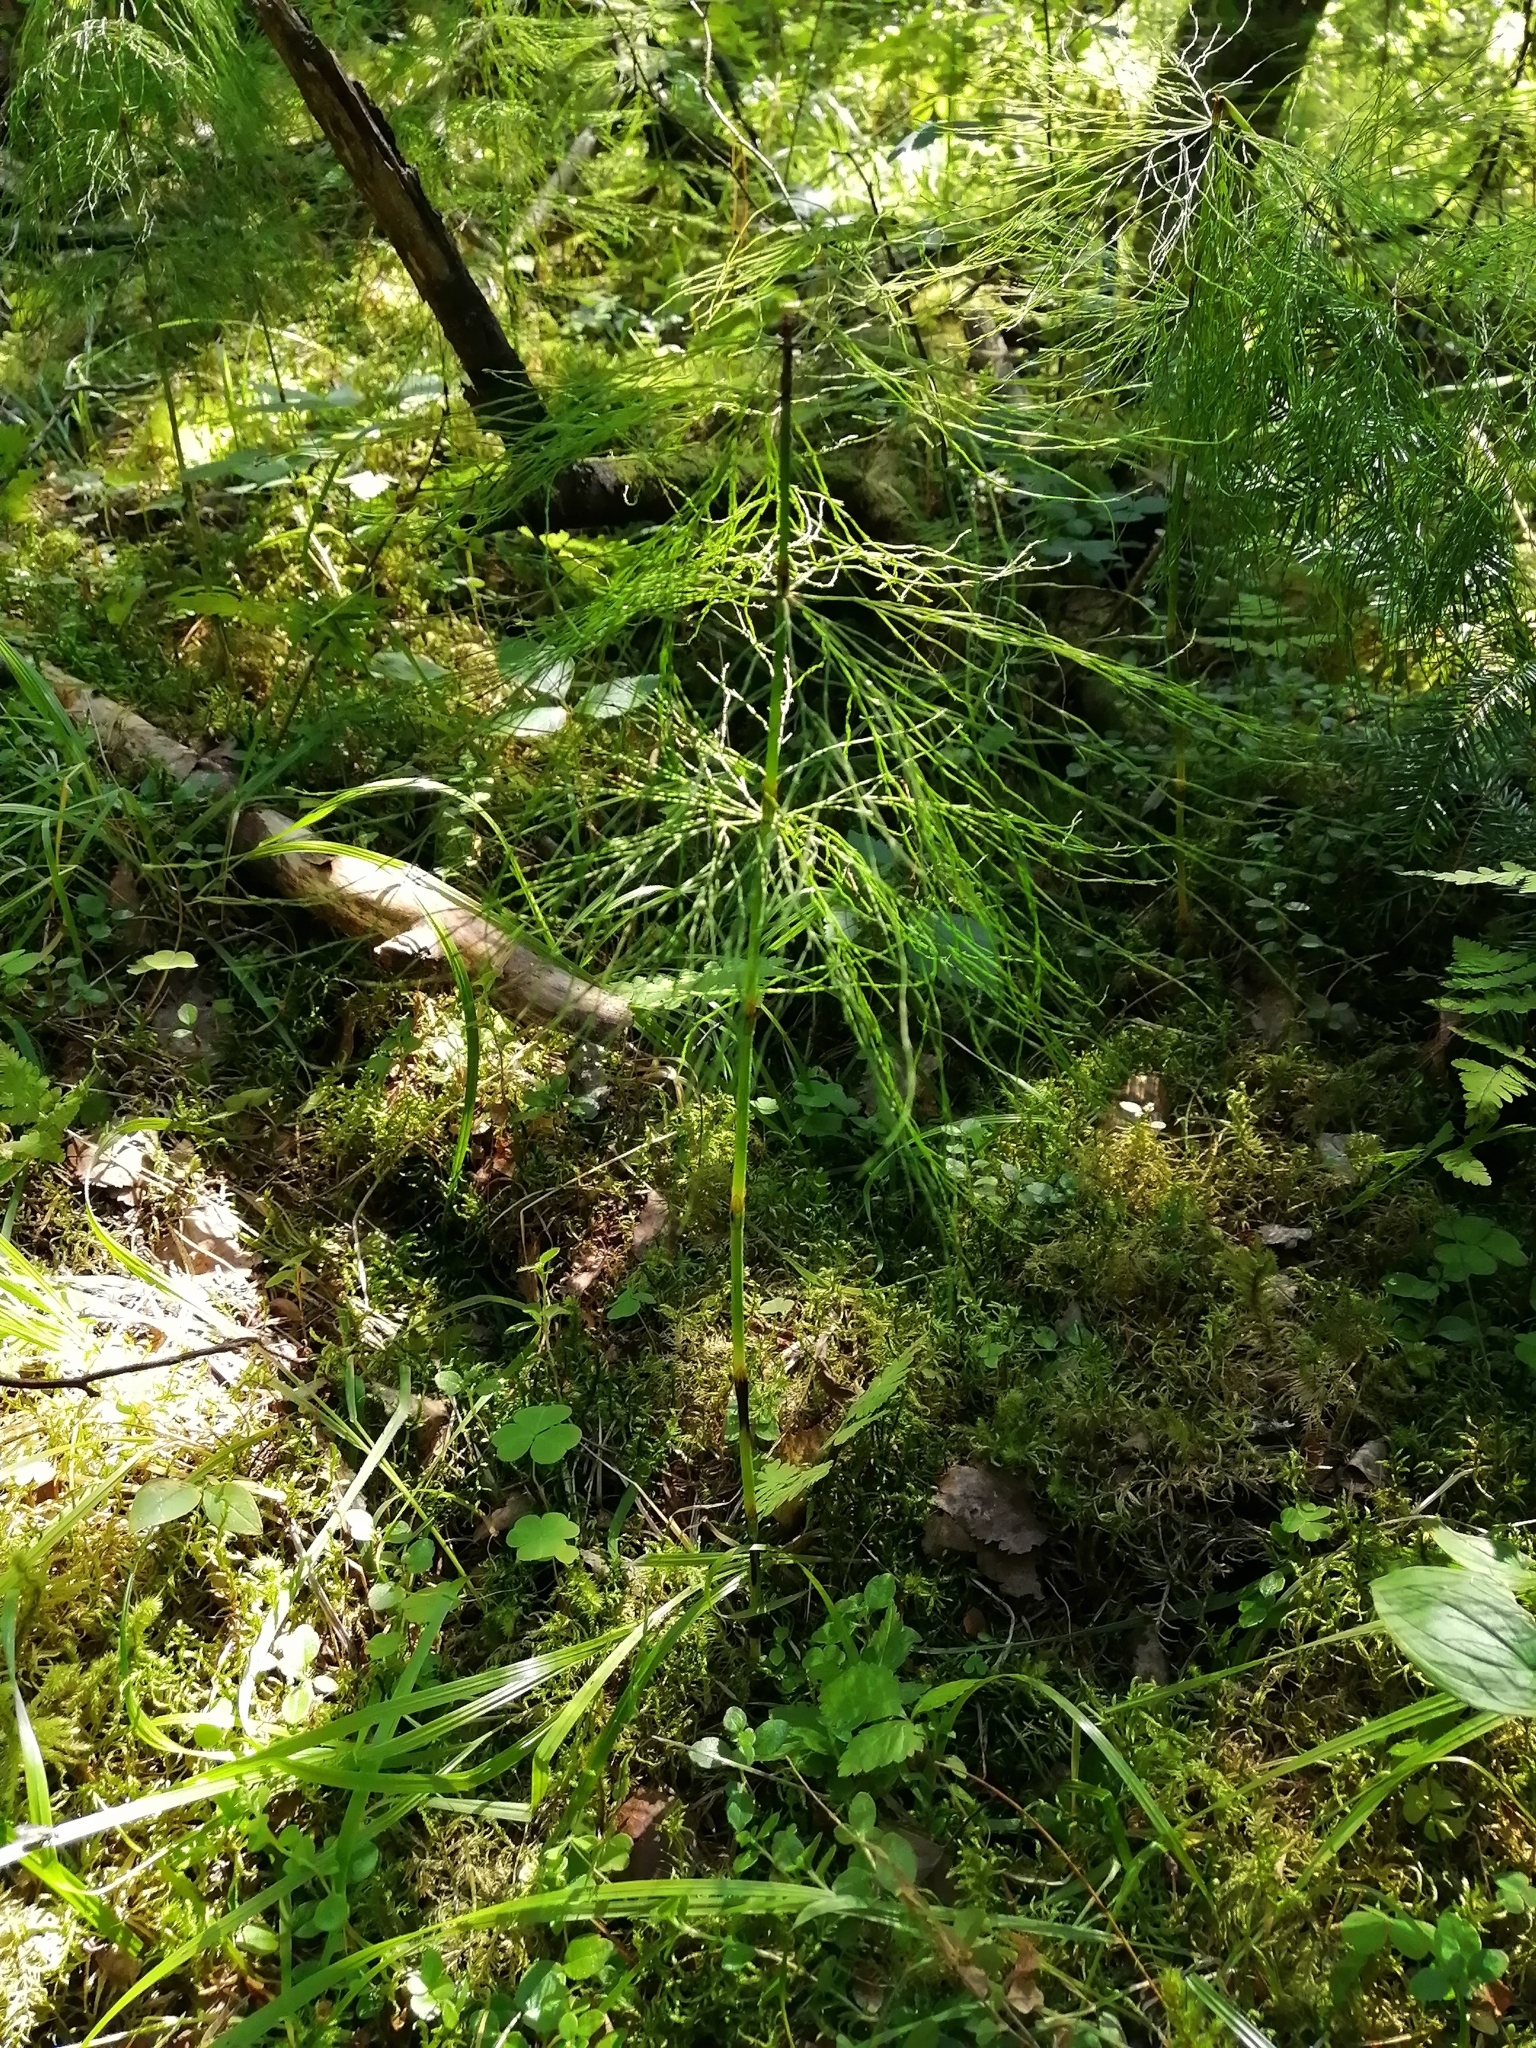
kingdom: Plantae
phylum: Tracheophyta
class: Polypodiopsida
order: Equisetales
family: Equisetaceae
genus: Equisetum
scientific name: Equisetum sylvaticum
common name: Wood horsetail
